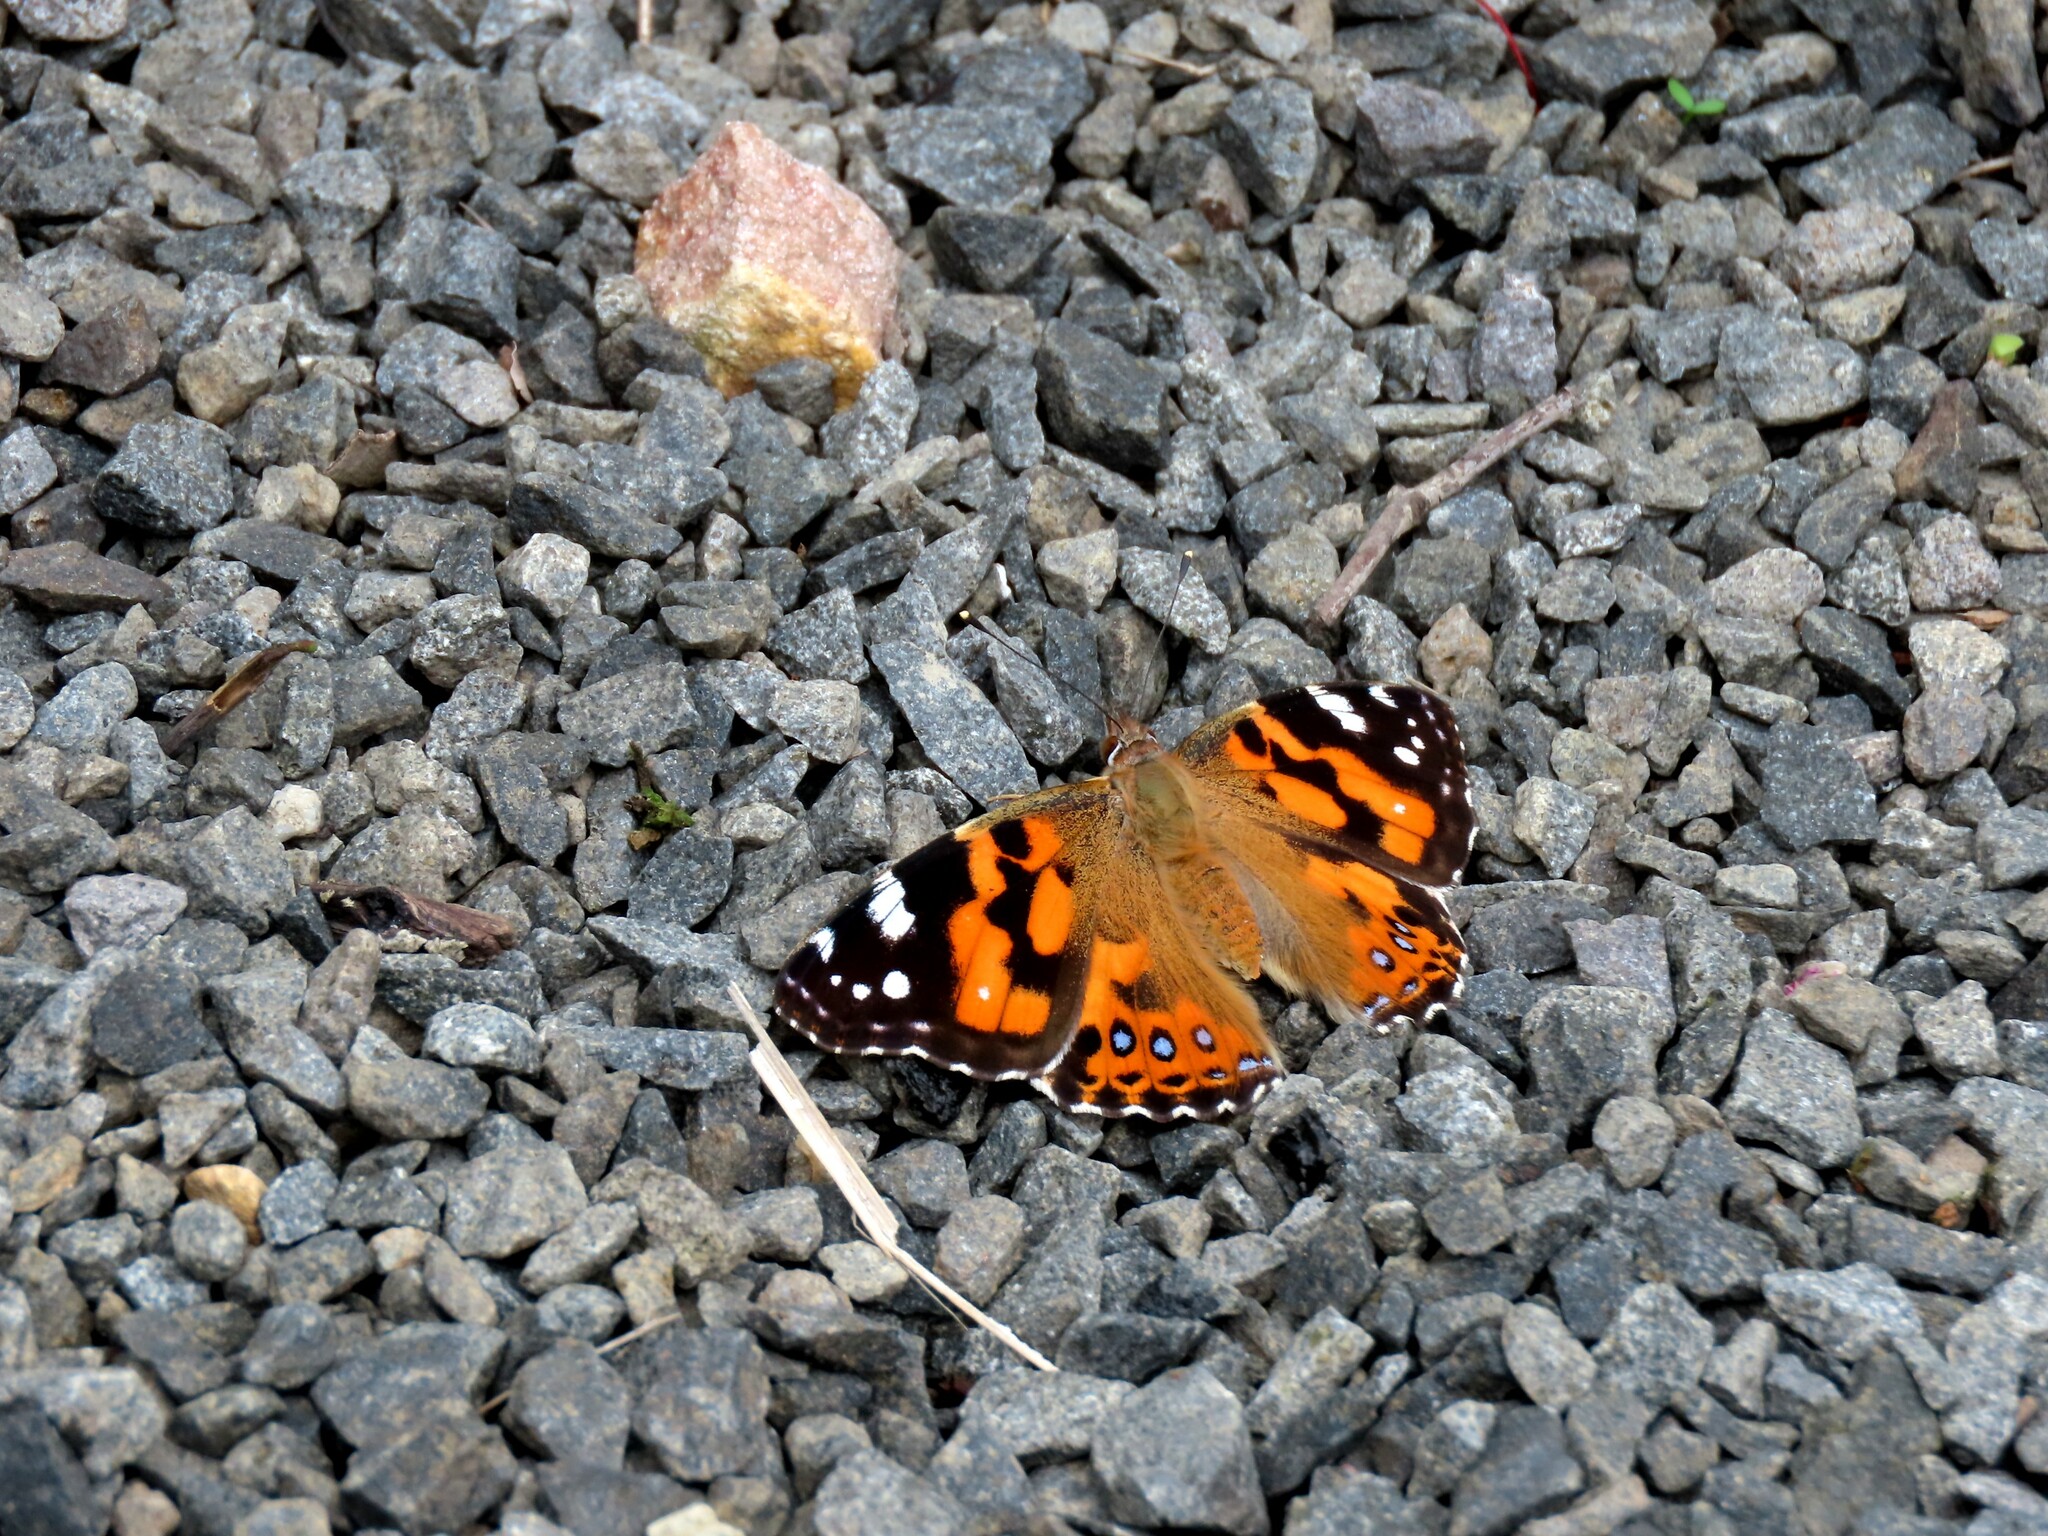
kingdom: Animalia
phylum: Arthropoda
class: Insecta
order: Lepidoptera
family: Nymphalidae
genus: Vanessa
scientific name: Vanessa kershawi
